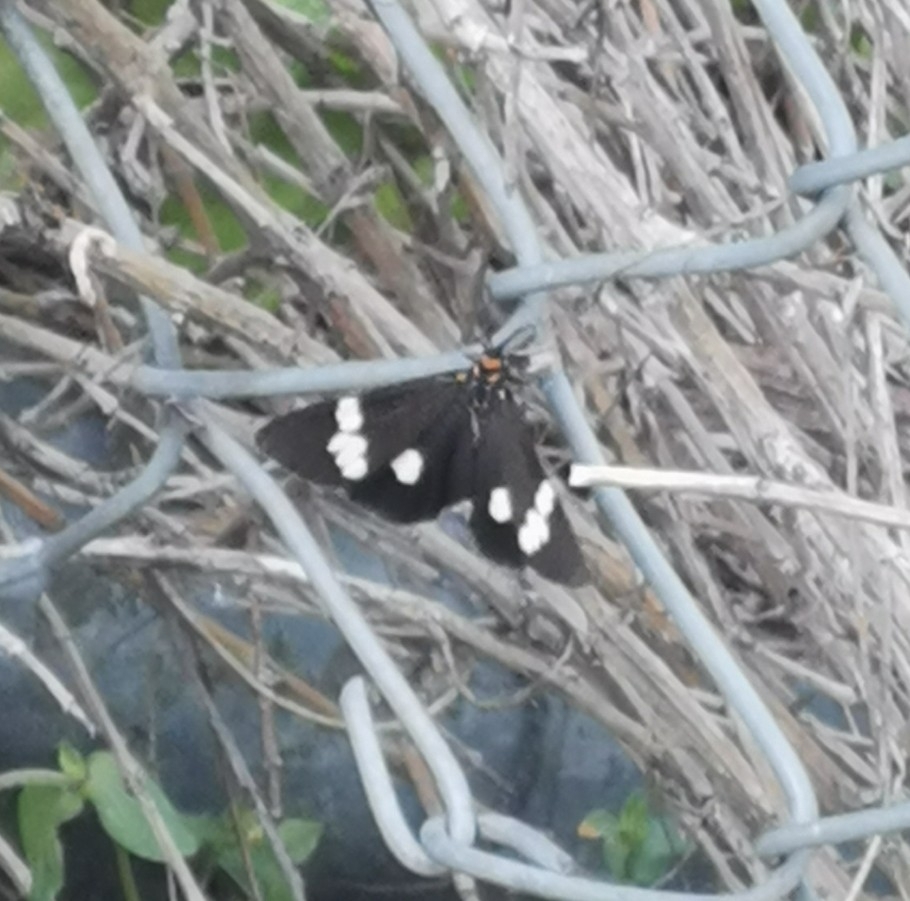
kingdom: Animalia
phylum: Arthropoda
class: Insecta
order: Lepidoptera
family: Erebidae
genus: Nyctemera
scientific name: Nyctemera annulatum
